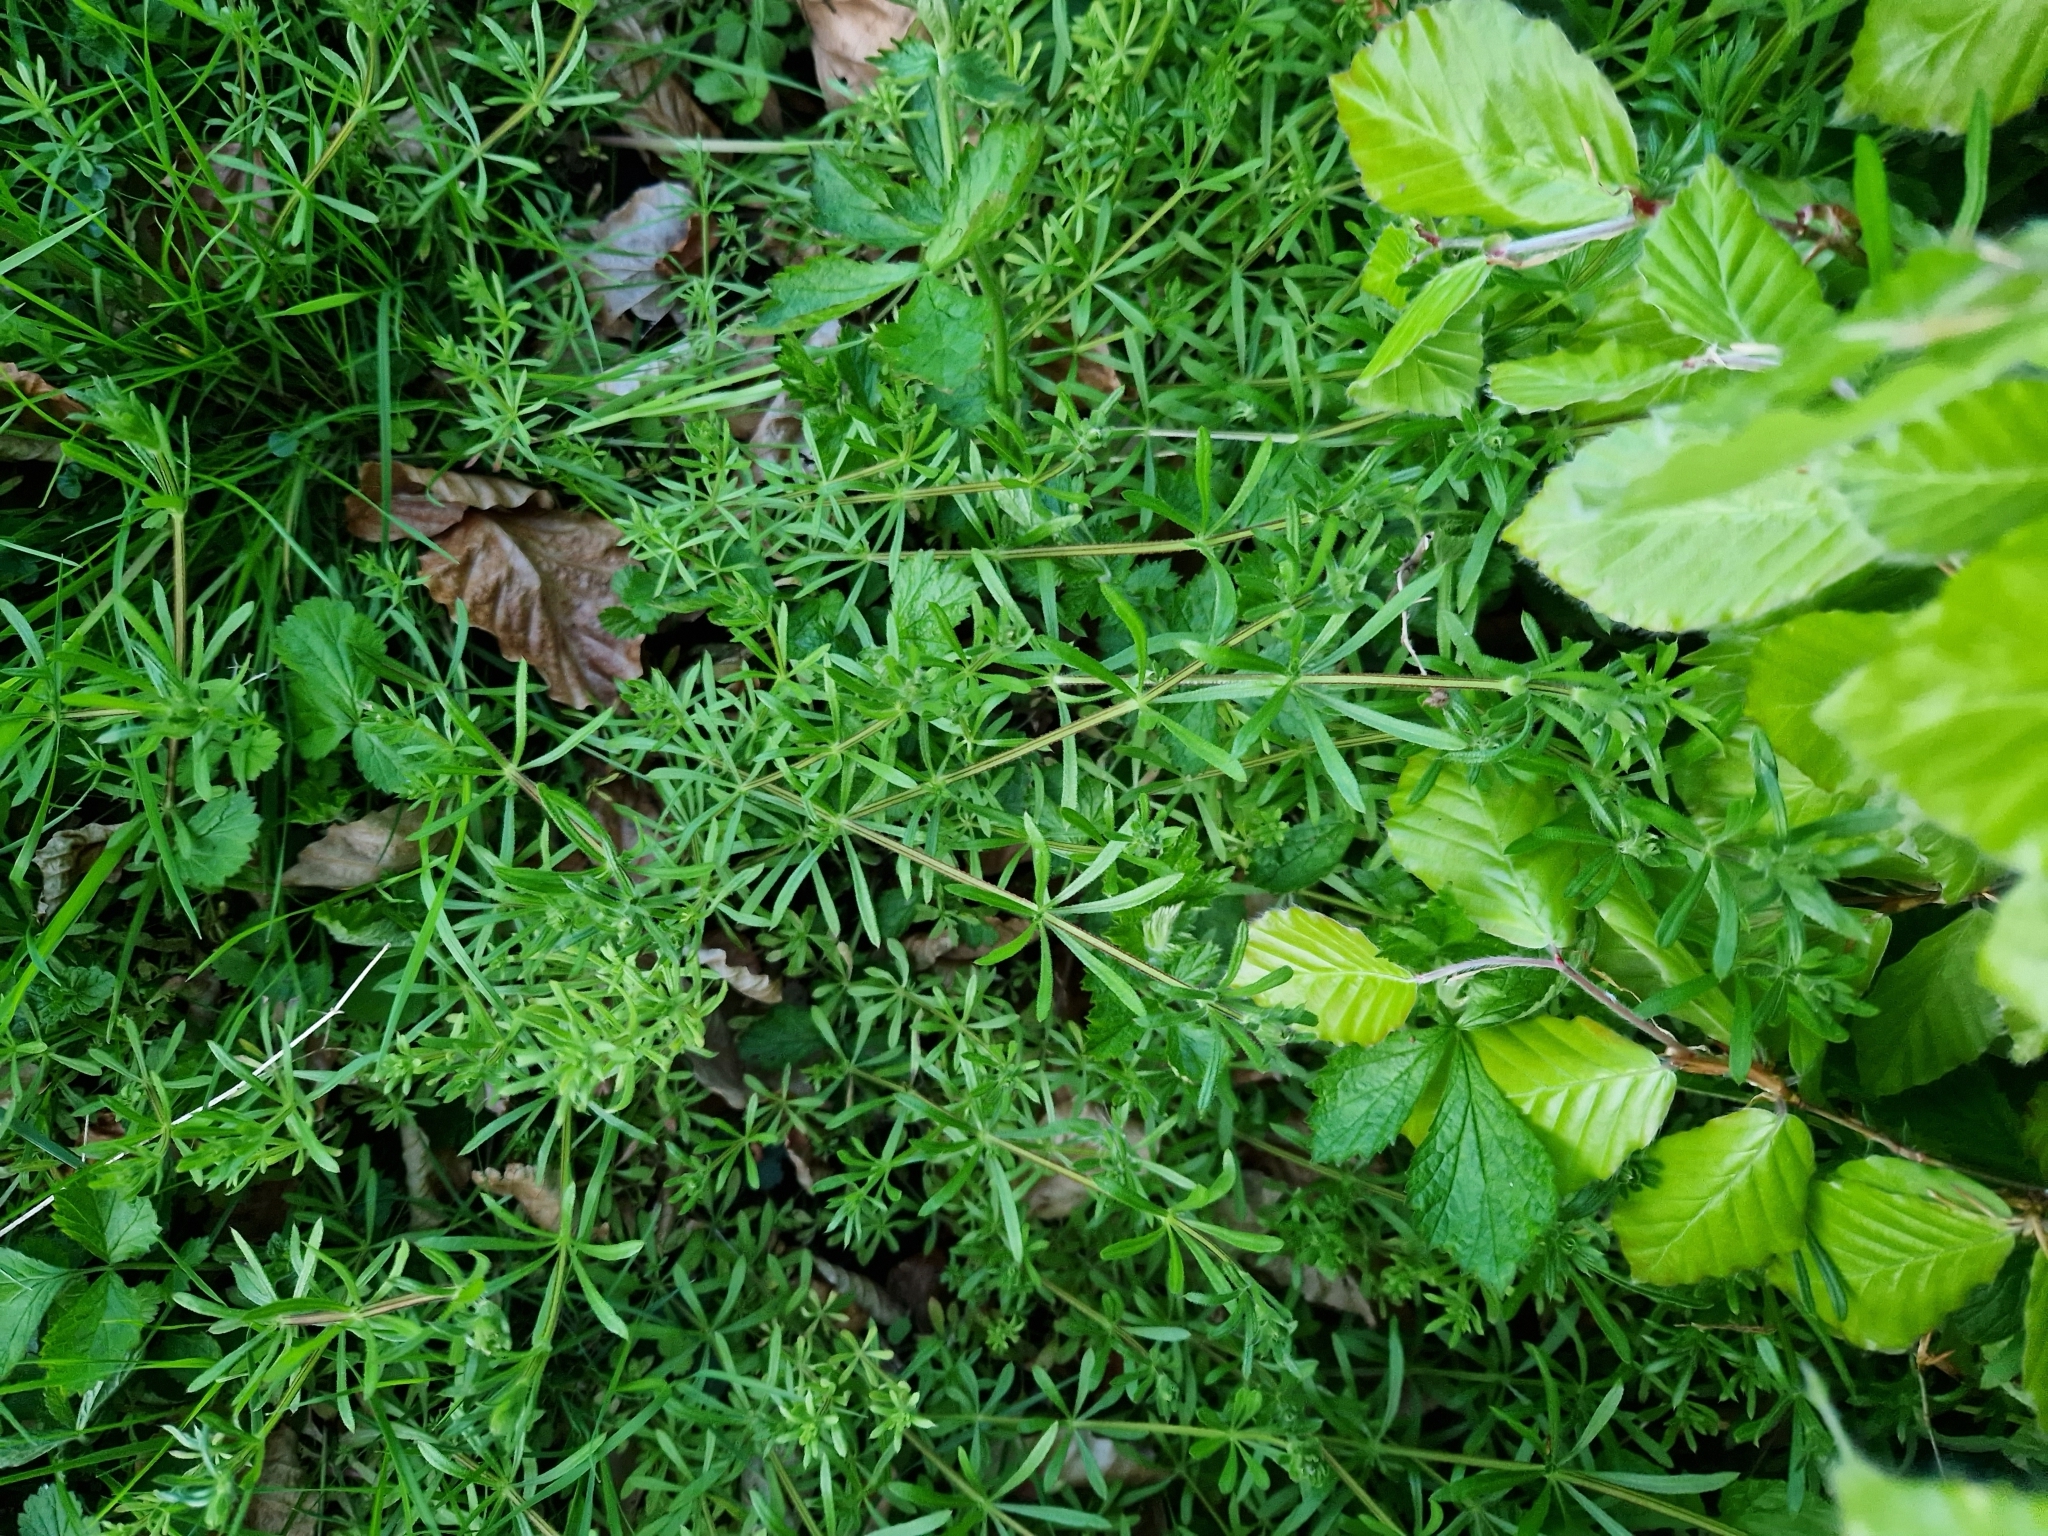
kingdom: Plantae
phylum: Tracheophyta
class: Magnoliopsida
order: Gentianales
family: Rubiaceae
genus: Galium
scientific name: Galium aparine
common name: Cleavers
